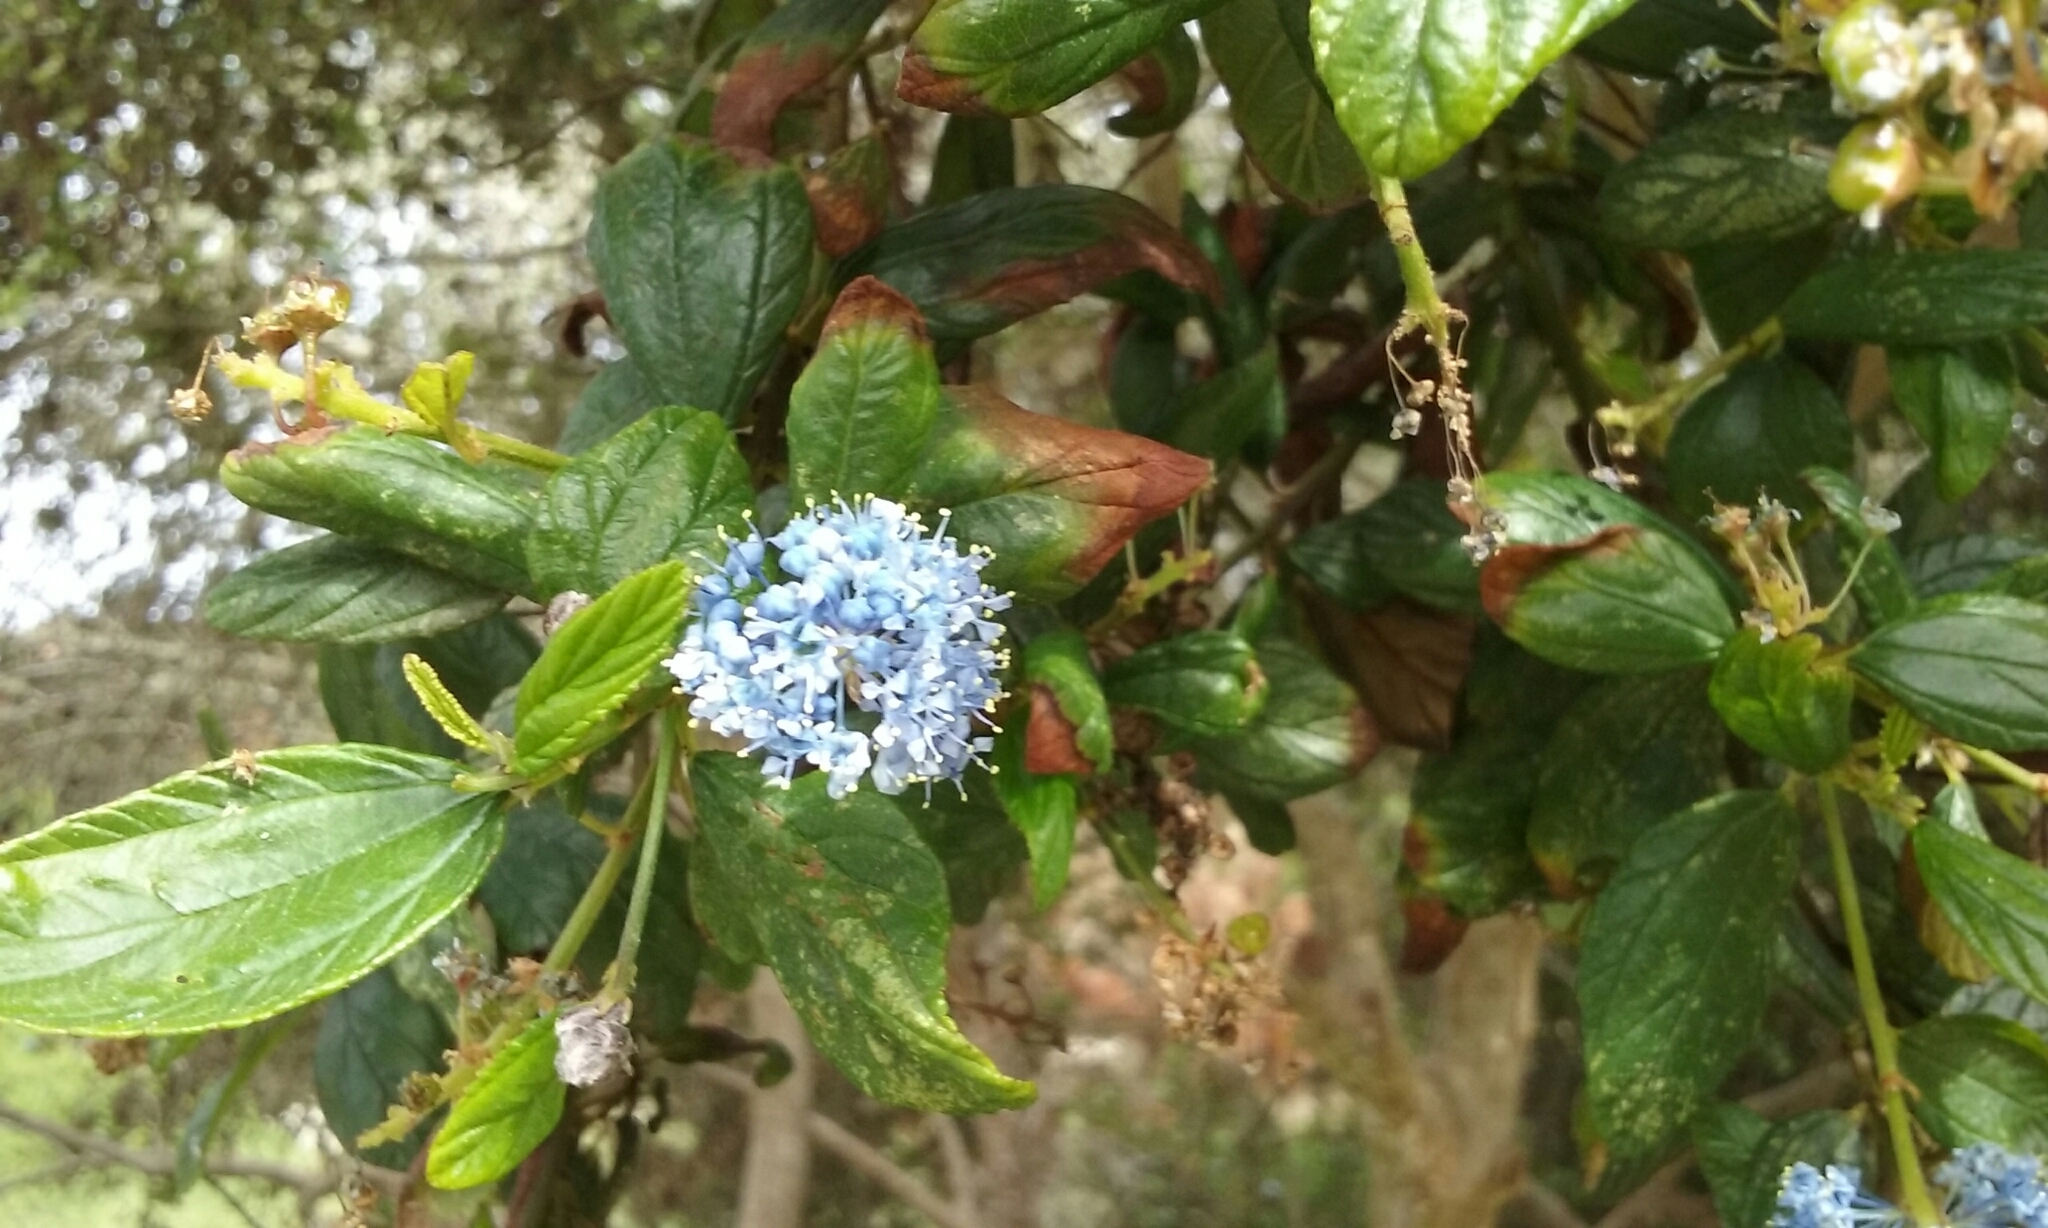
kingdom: Plantae
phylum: Tracheophyta
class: Magnoliopsida
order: Rosales
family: Rhamnaceae
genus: Ceanothus
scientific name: Ceanothus thyrsiflorus
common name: California-lilac
